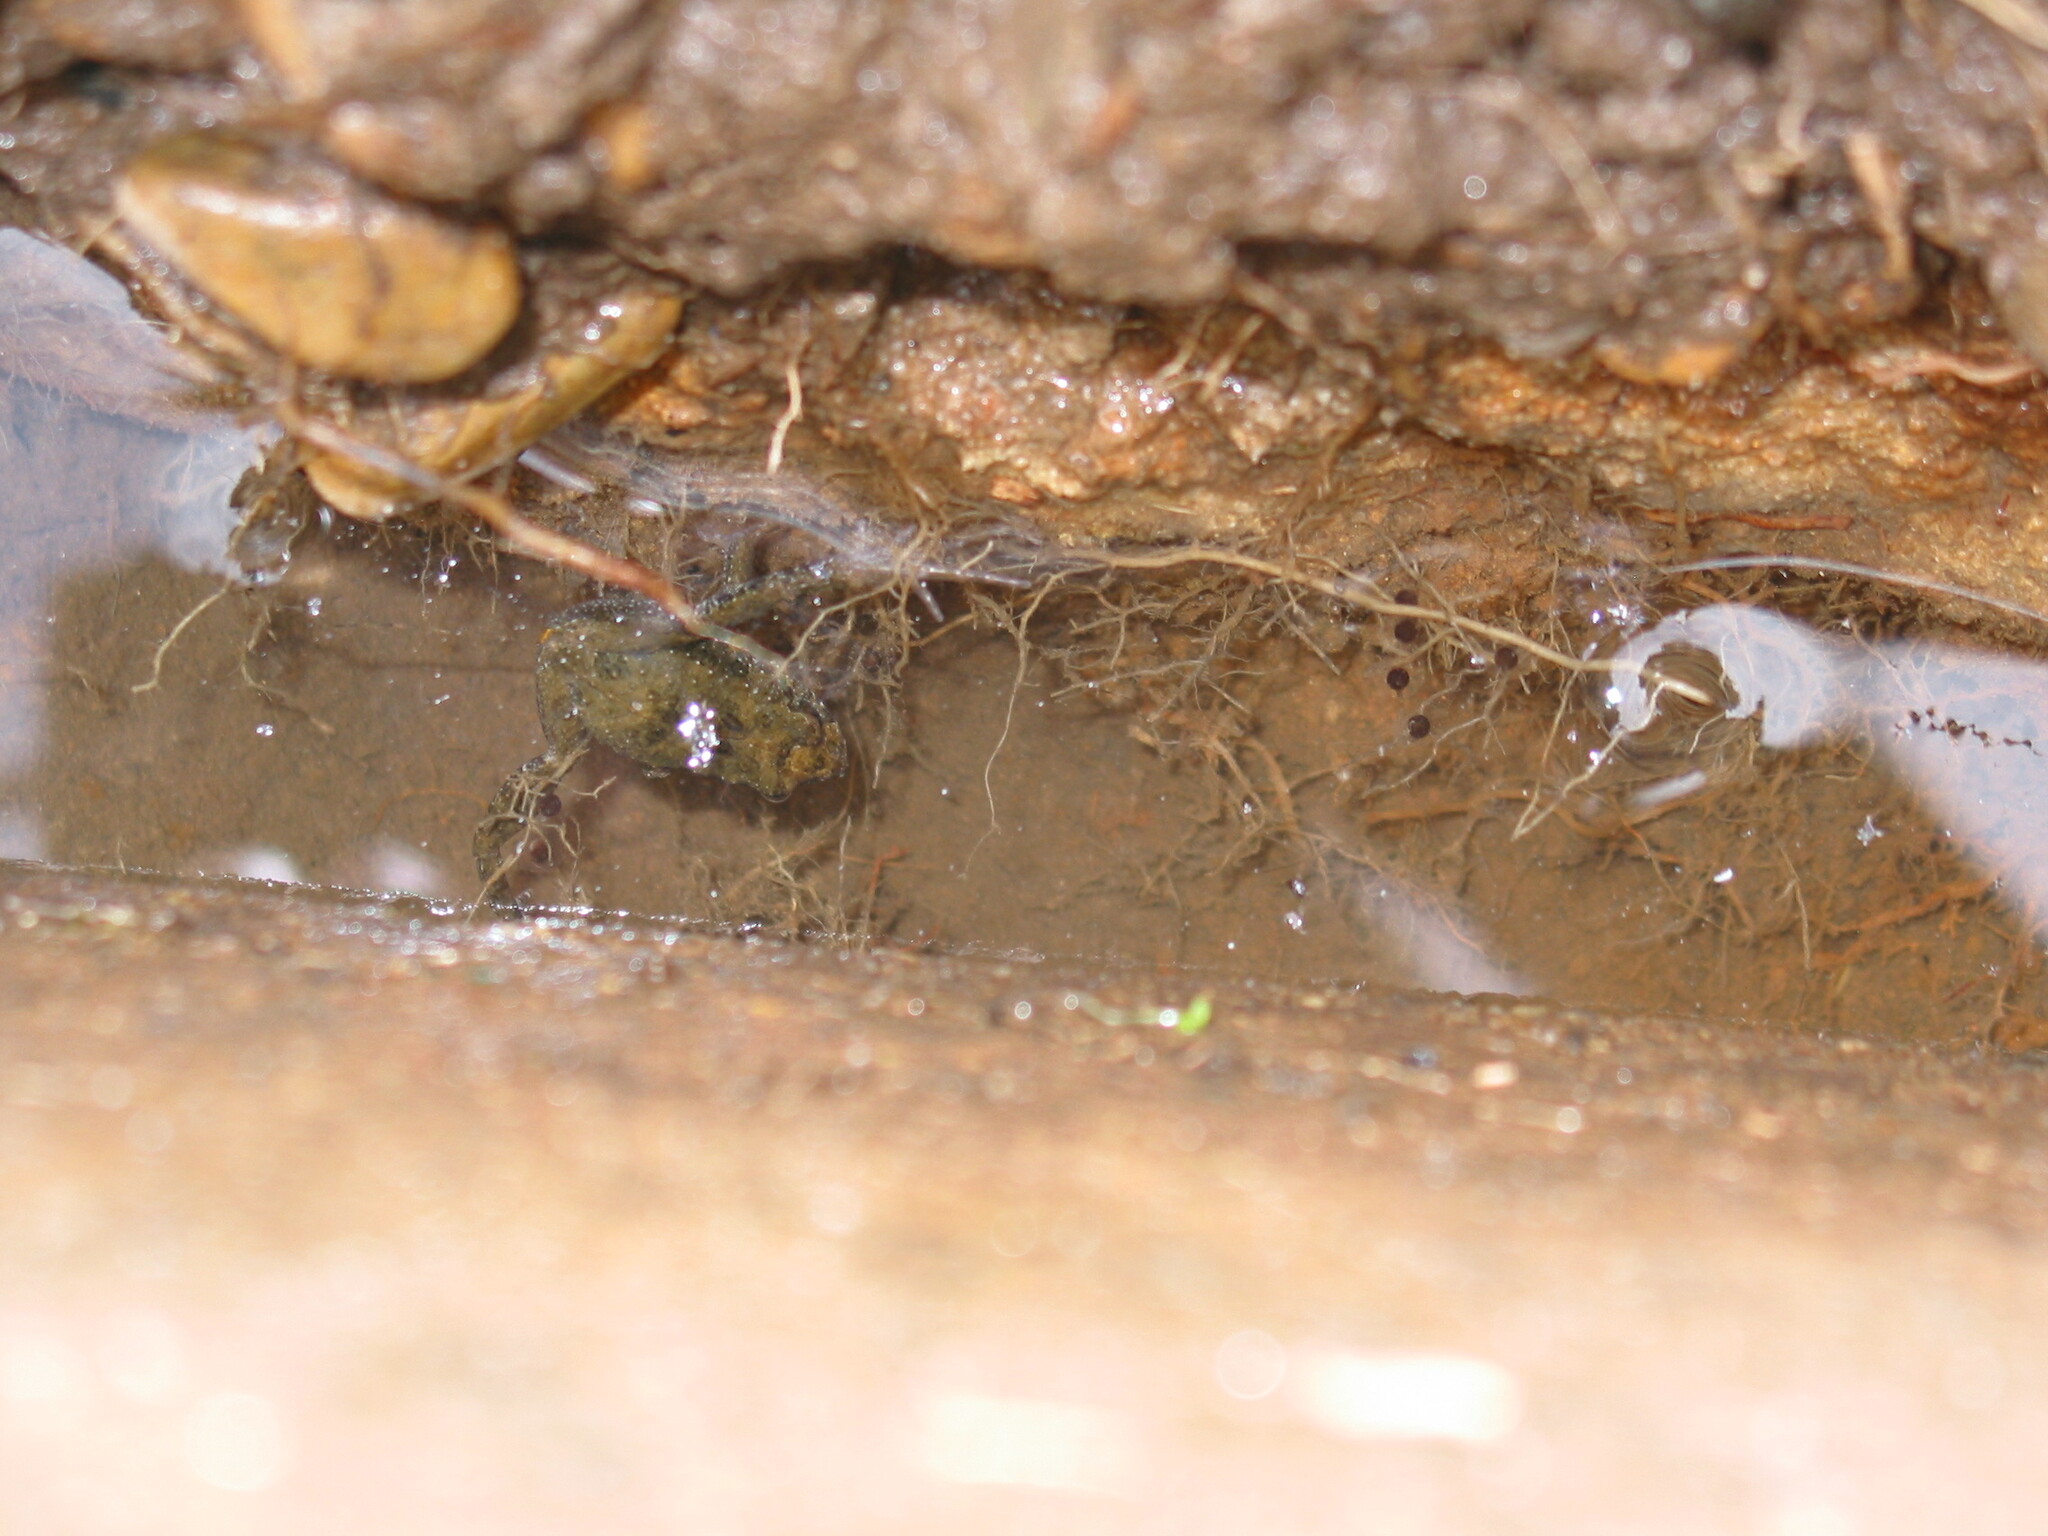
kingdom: Animalia
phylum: Chordata
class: Amphibia
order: Anura
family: Myobatrachidae
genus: Crinia
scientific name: Crinia signifera
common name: Brown froglet
